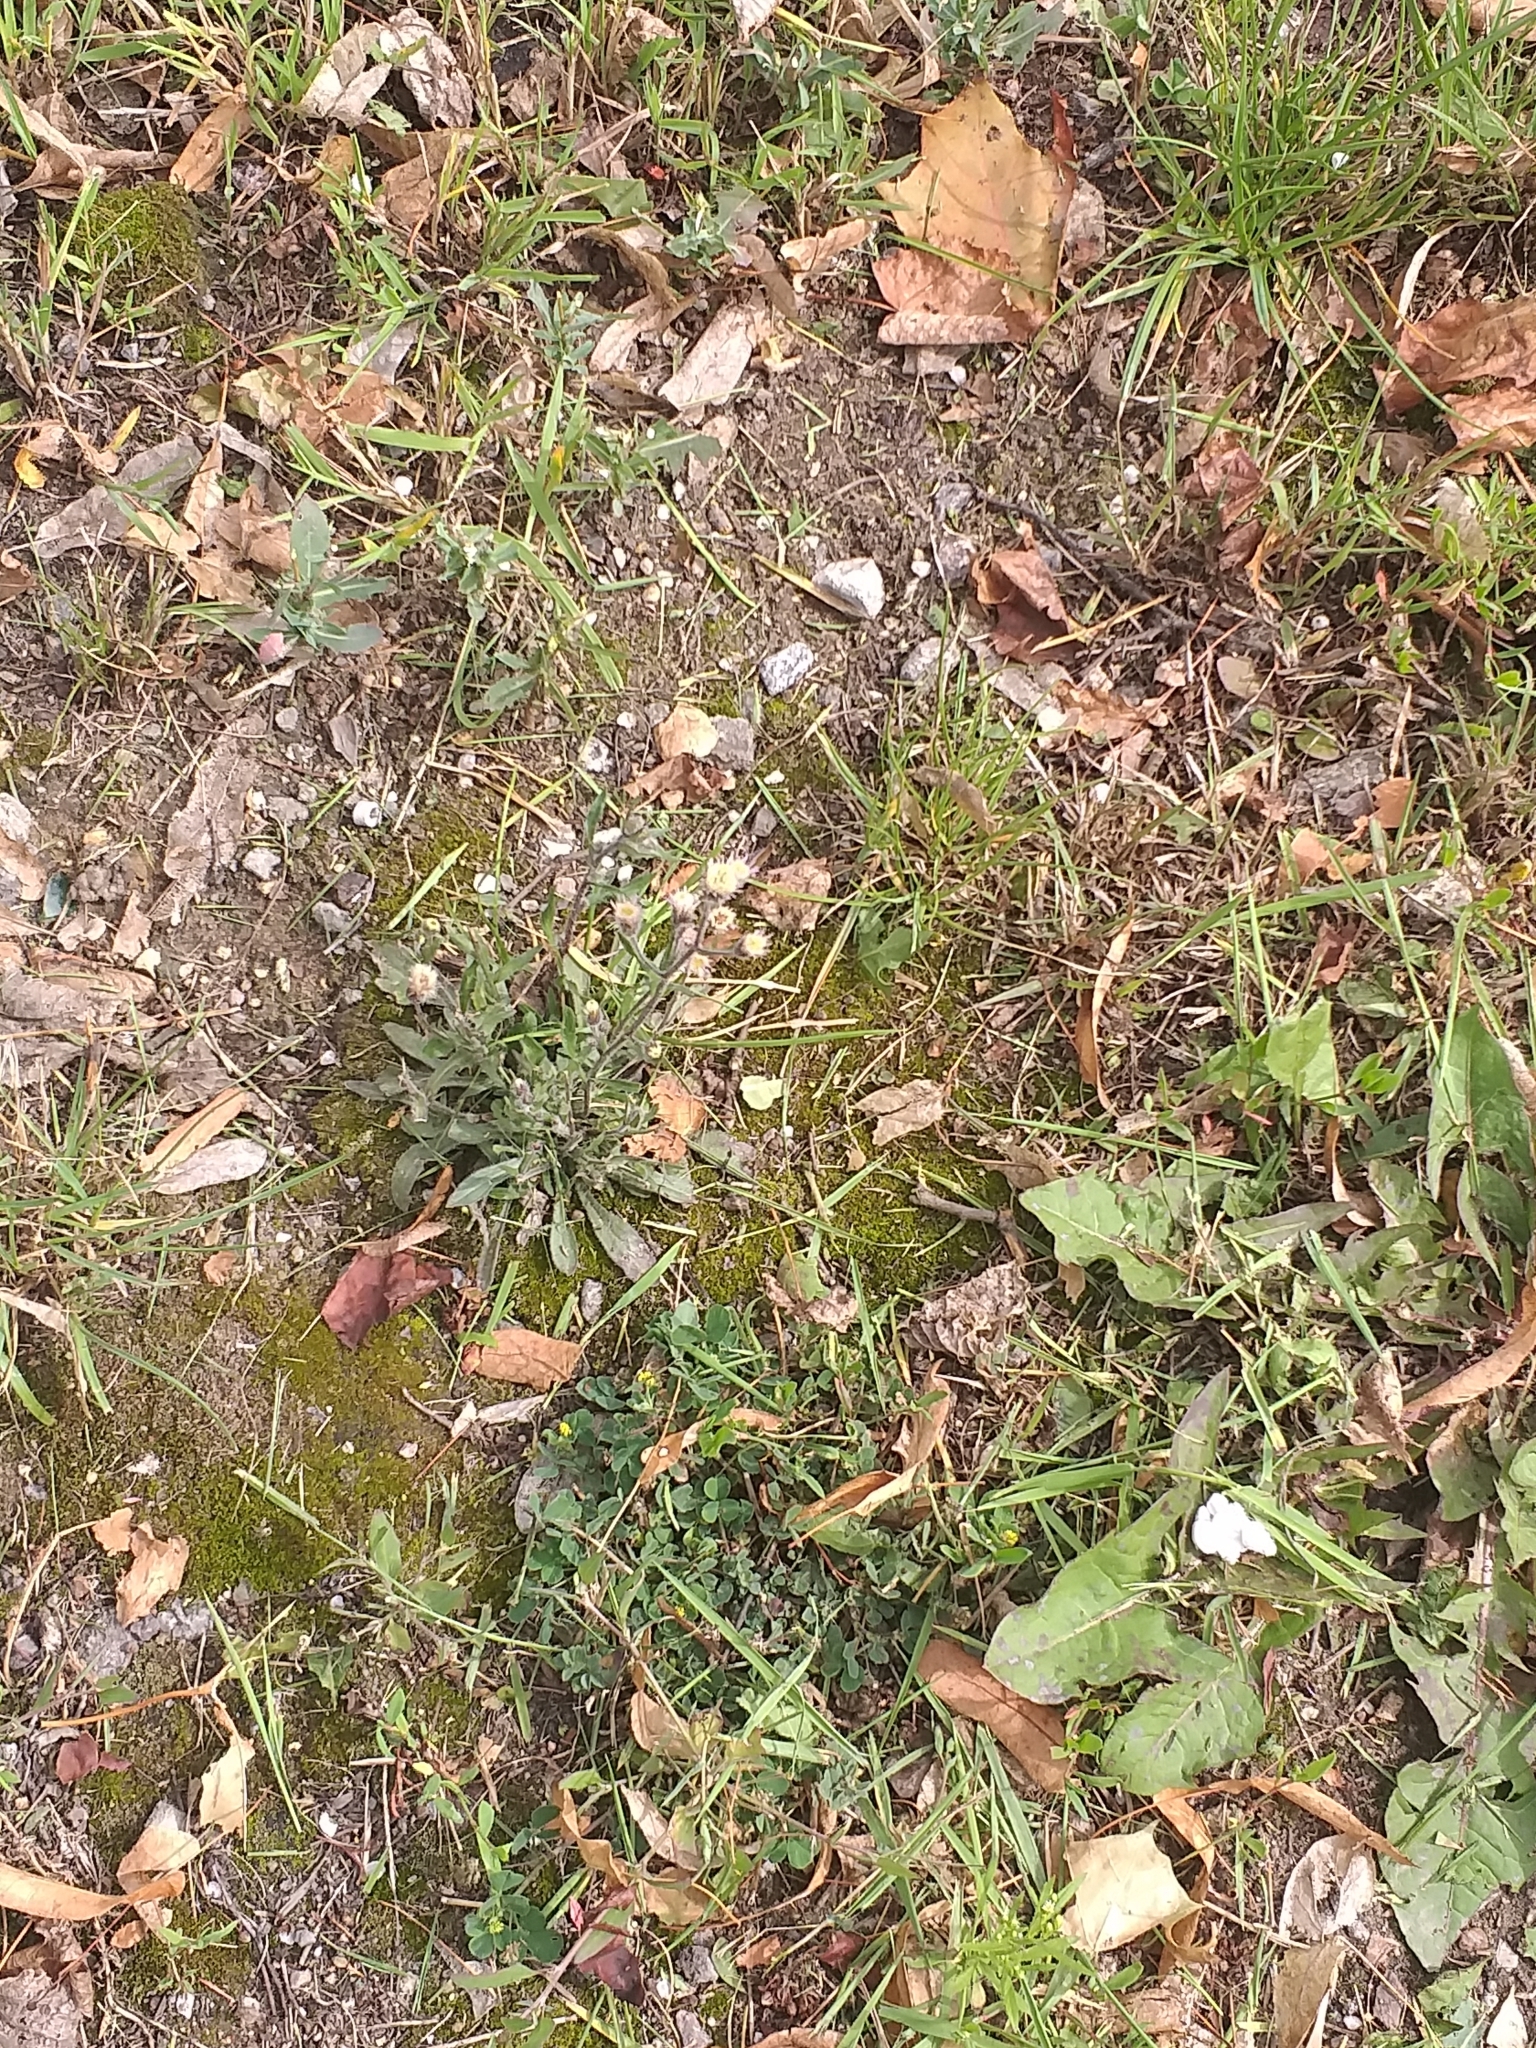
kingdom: Plantae
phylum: Tracheophyta
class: Magnoliopsida
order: Asterales
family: Asteraceae
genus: Erigeron
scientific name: Erigeron acris
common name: Blue fleabane
